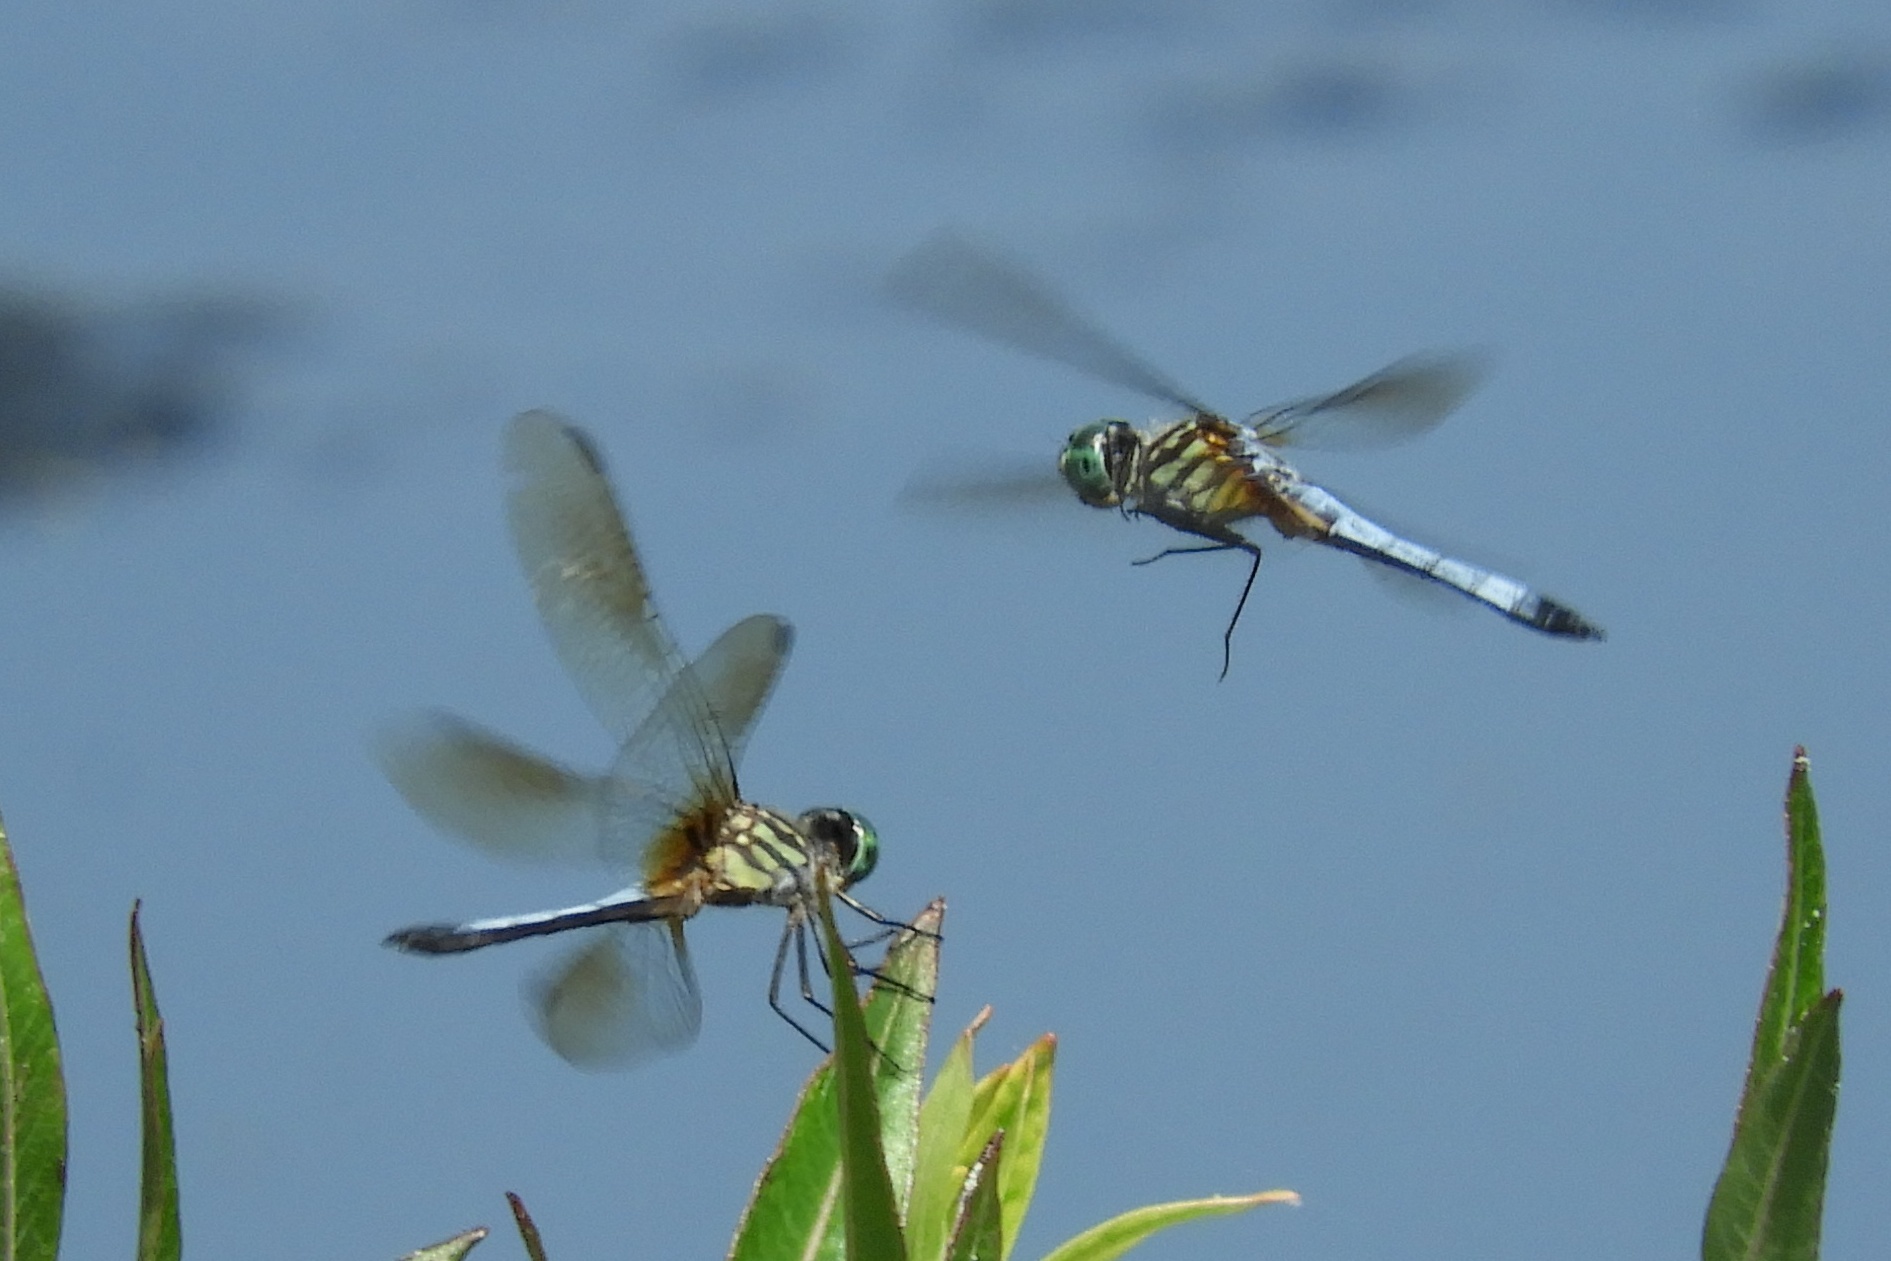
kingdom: Animalia
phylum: Arthropoda
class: Insecta
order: Odonata
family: Libellulidae
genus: Pachydiplax
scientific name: Pachydiplax longipennis
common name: Blue dasher
